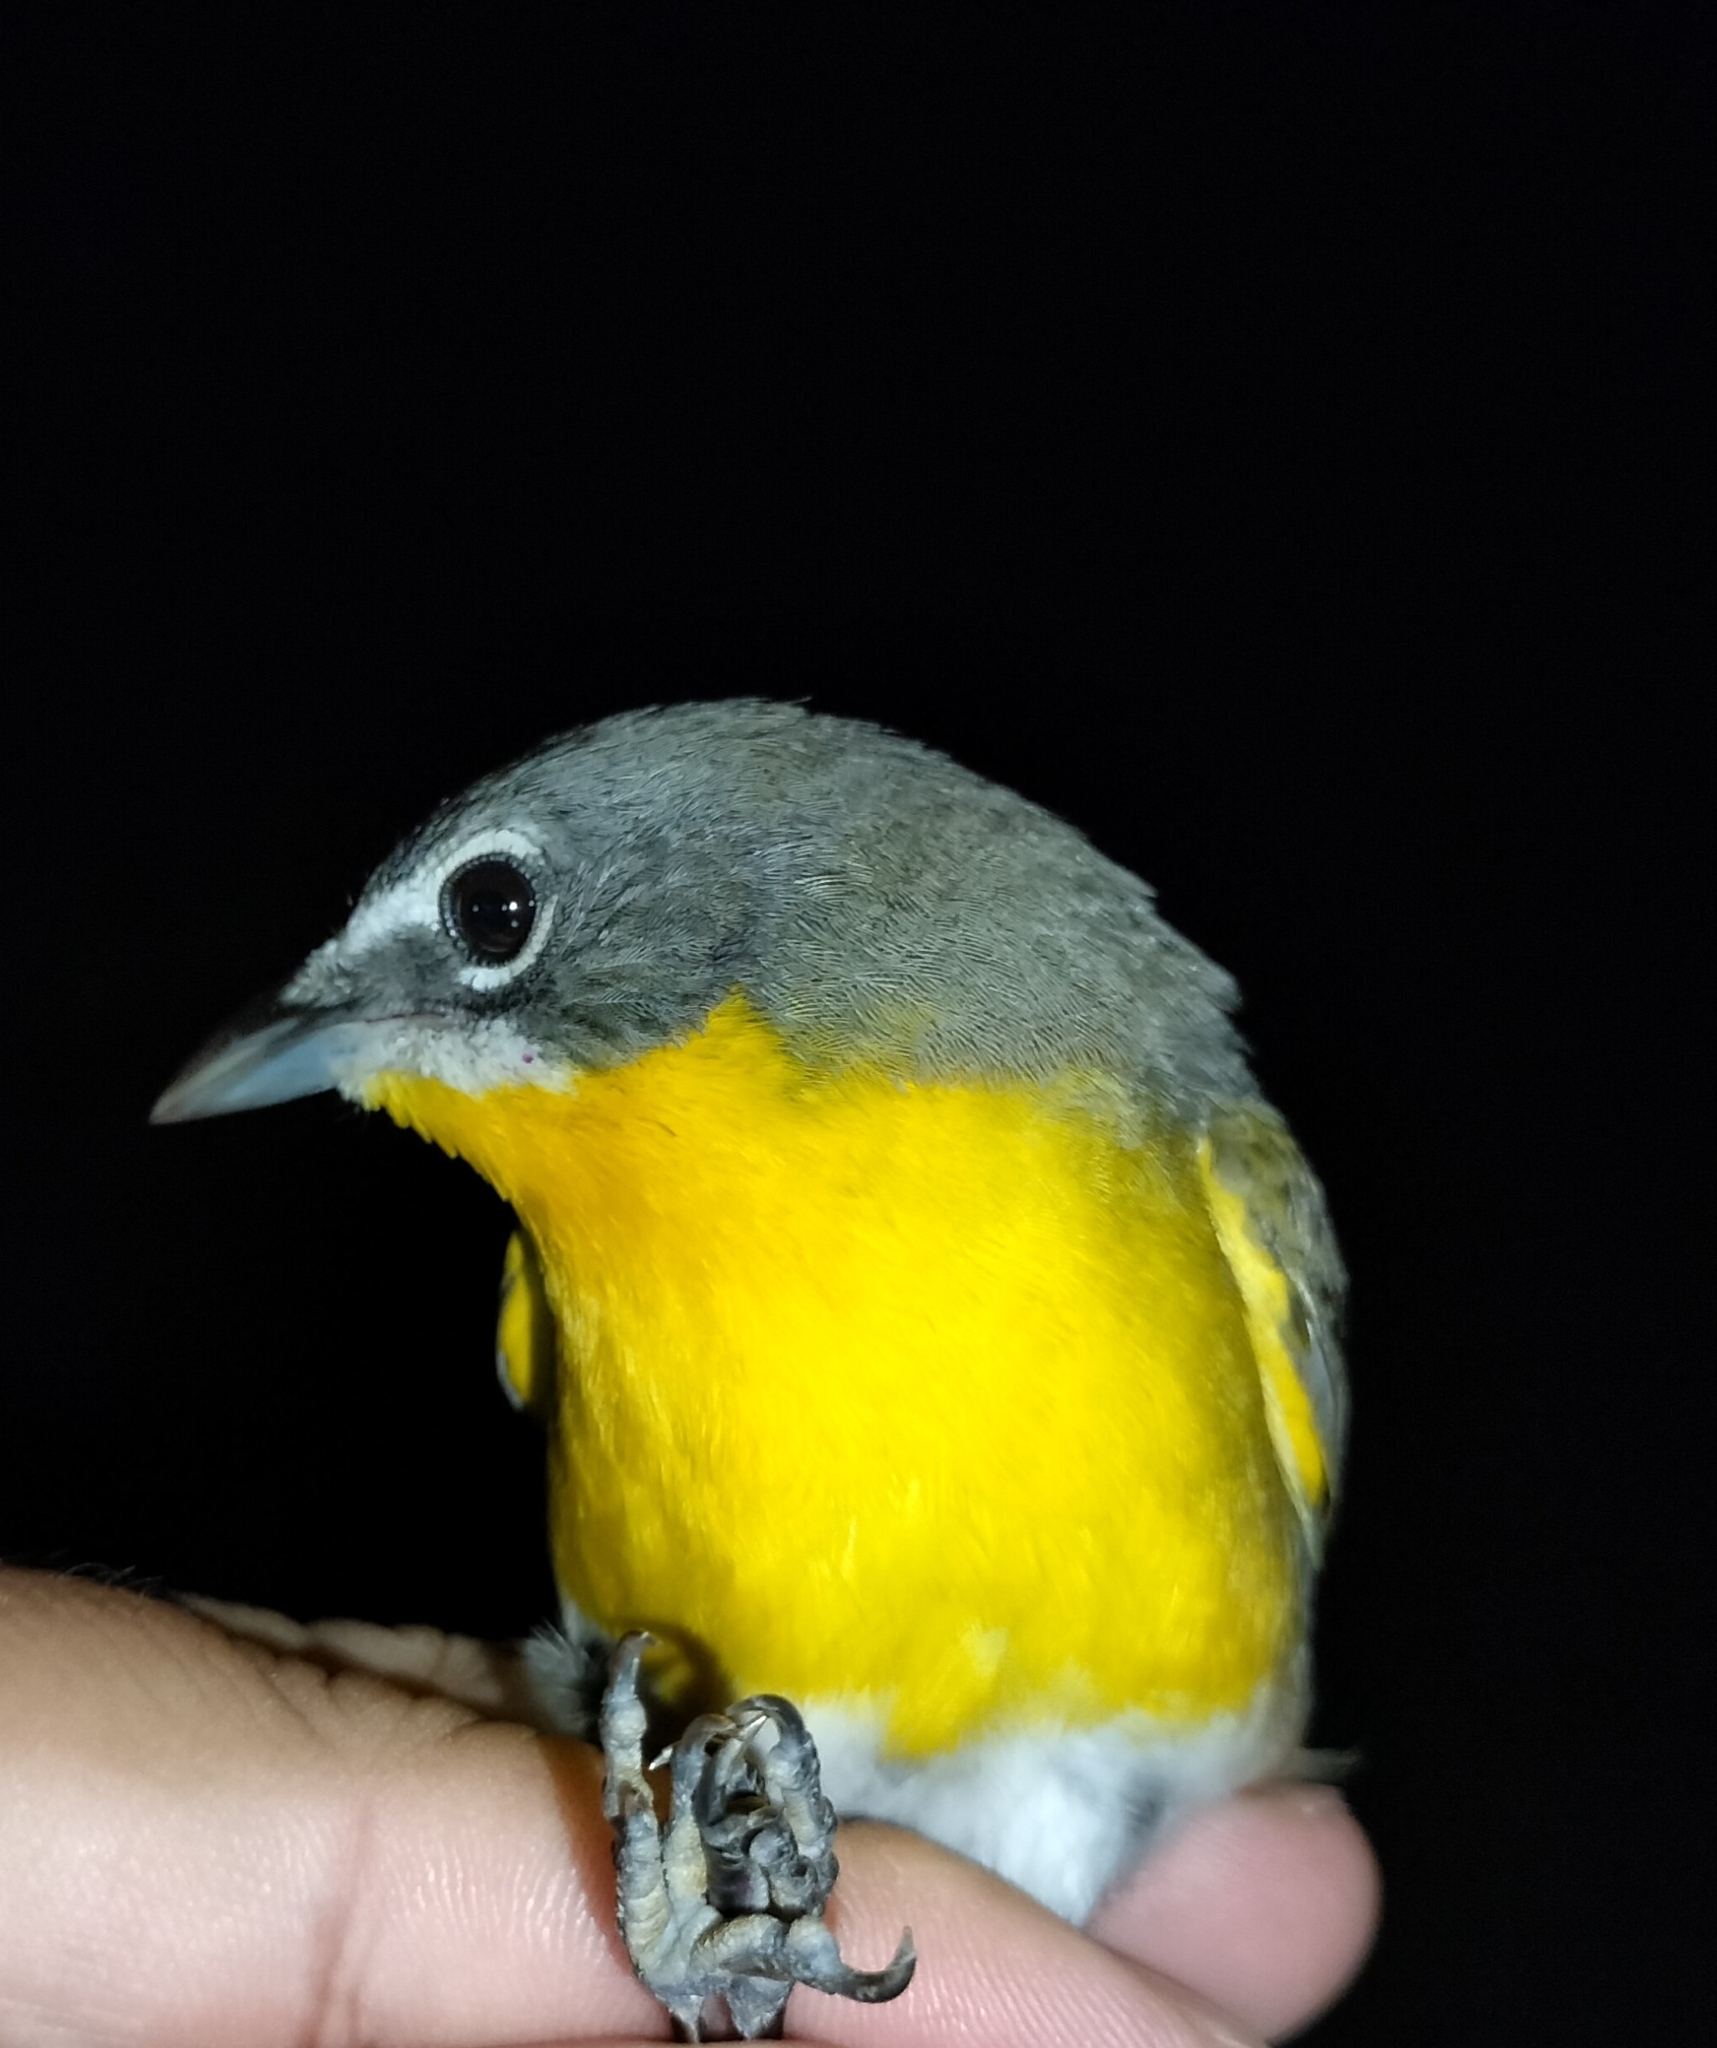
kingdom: Animalia
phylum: Chordata
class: Aves
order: Passeriformes
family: Parulidae
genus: Icteria
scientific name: Icteria virens
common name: Yellow-breasted chat
